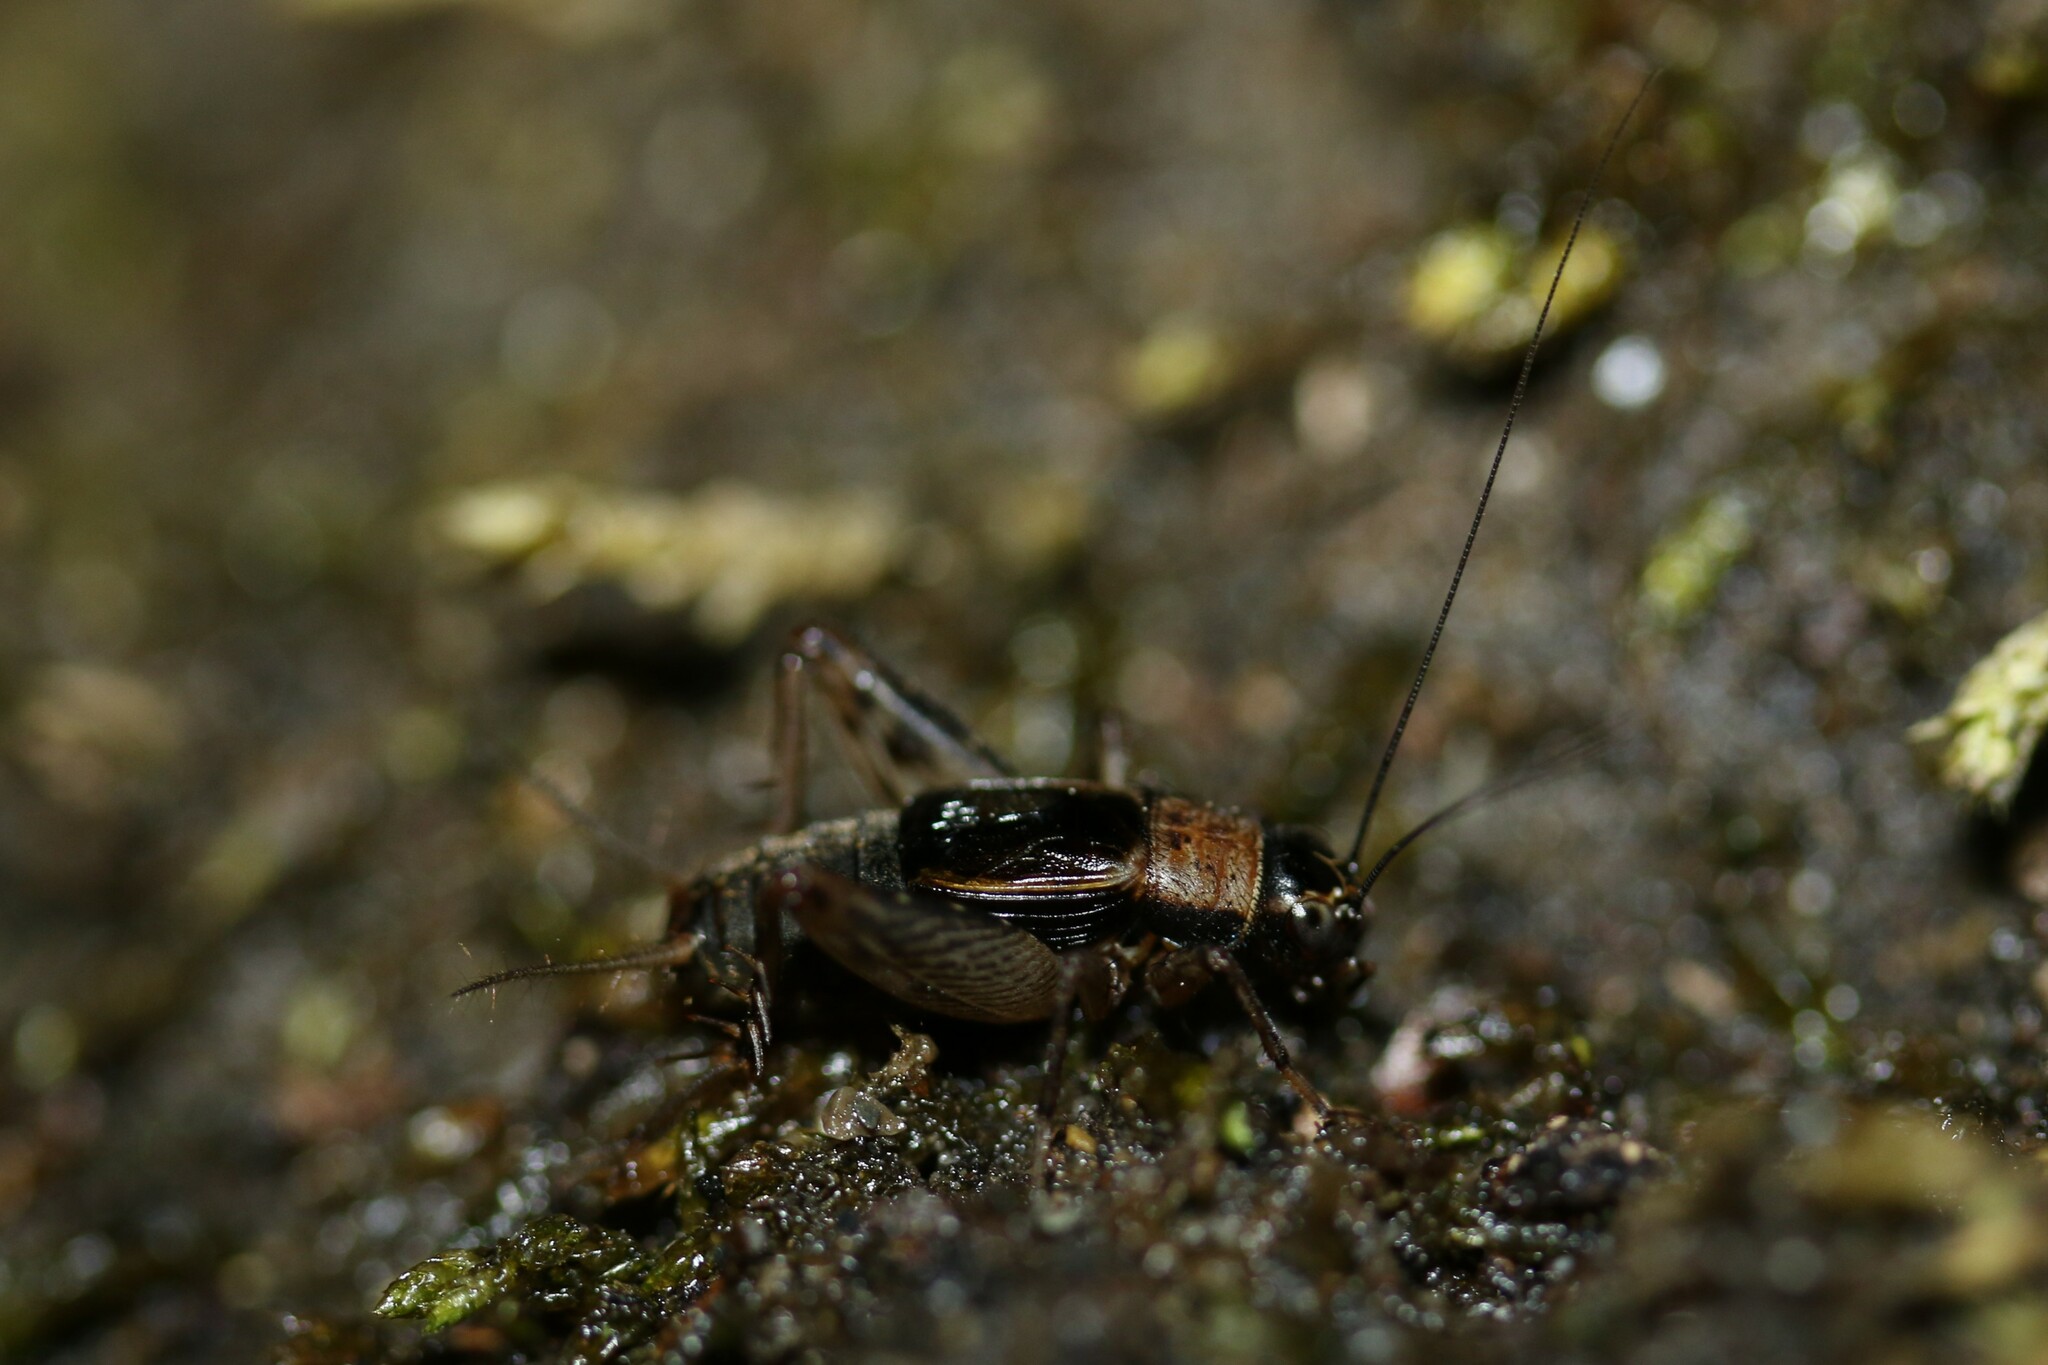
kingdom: Animalia
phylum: Arthropoda
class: Insecta
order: Orthoptera
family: Trigonidiidae
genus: Nemobius
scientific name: Nemobius sylvestris
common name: Wood-cricket
